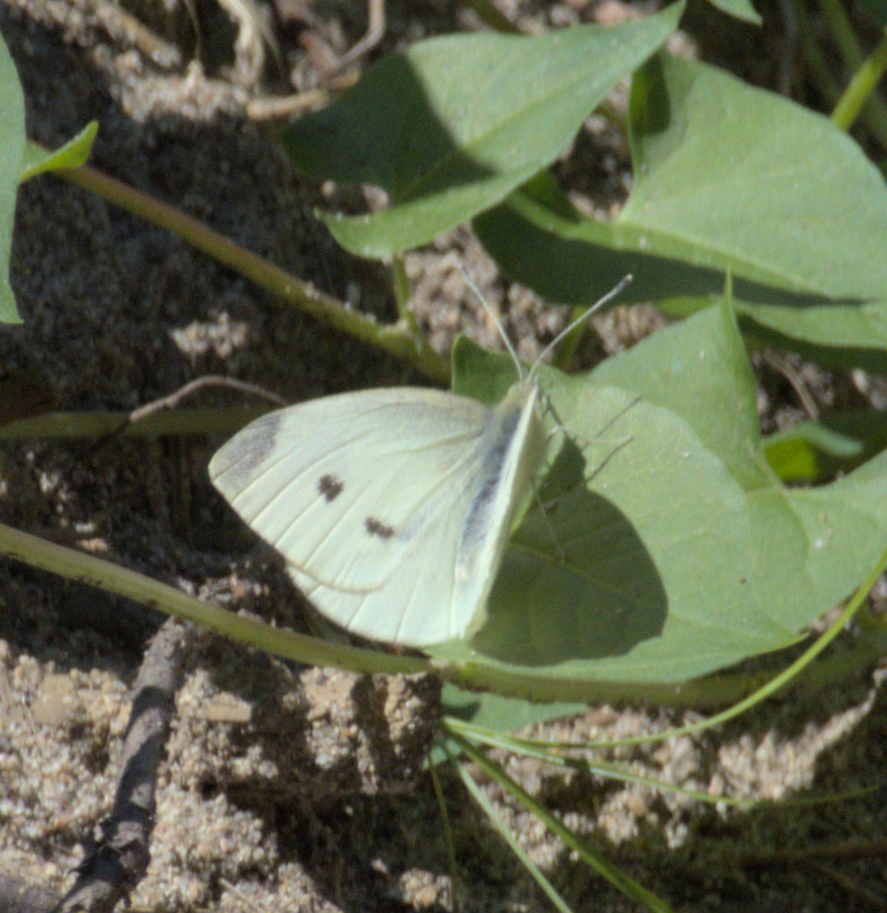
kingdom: Animalia
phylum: Arthropoda
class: Insecta
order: Lepidoptera
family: Pieridae
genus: Pieris
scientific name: Pieris rapae
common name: Small white
